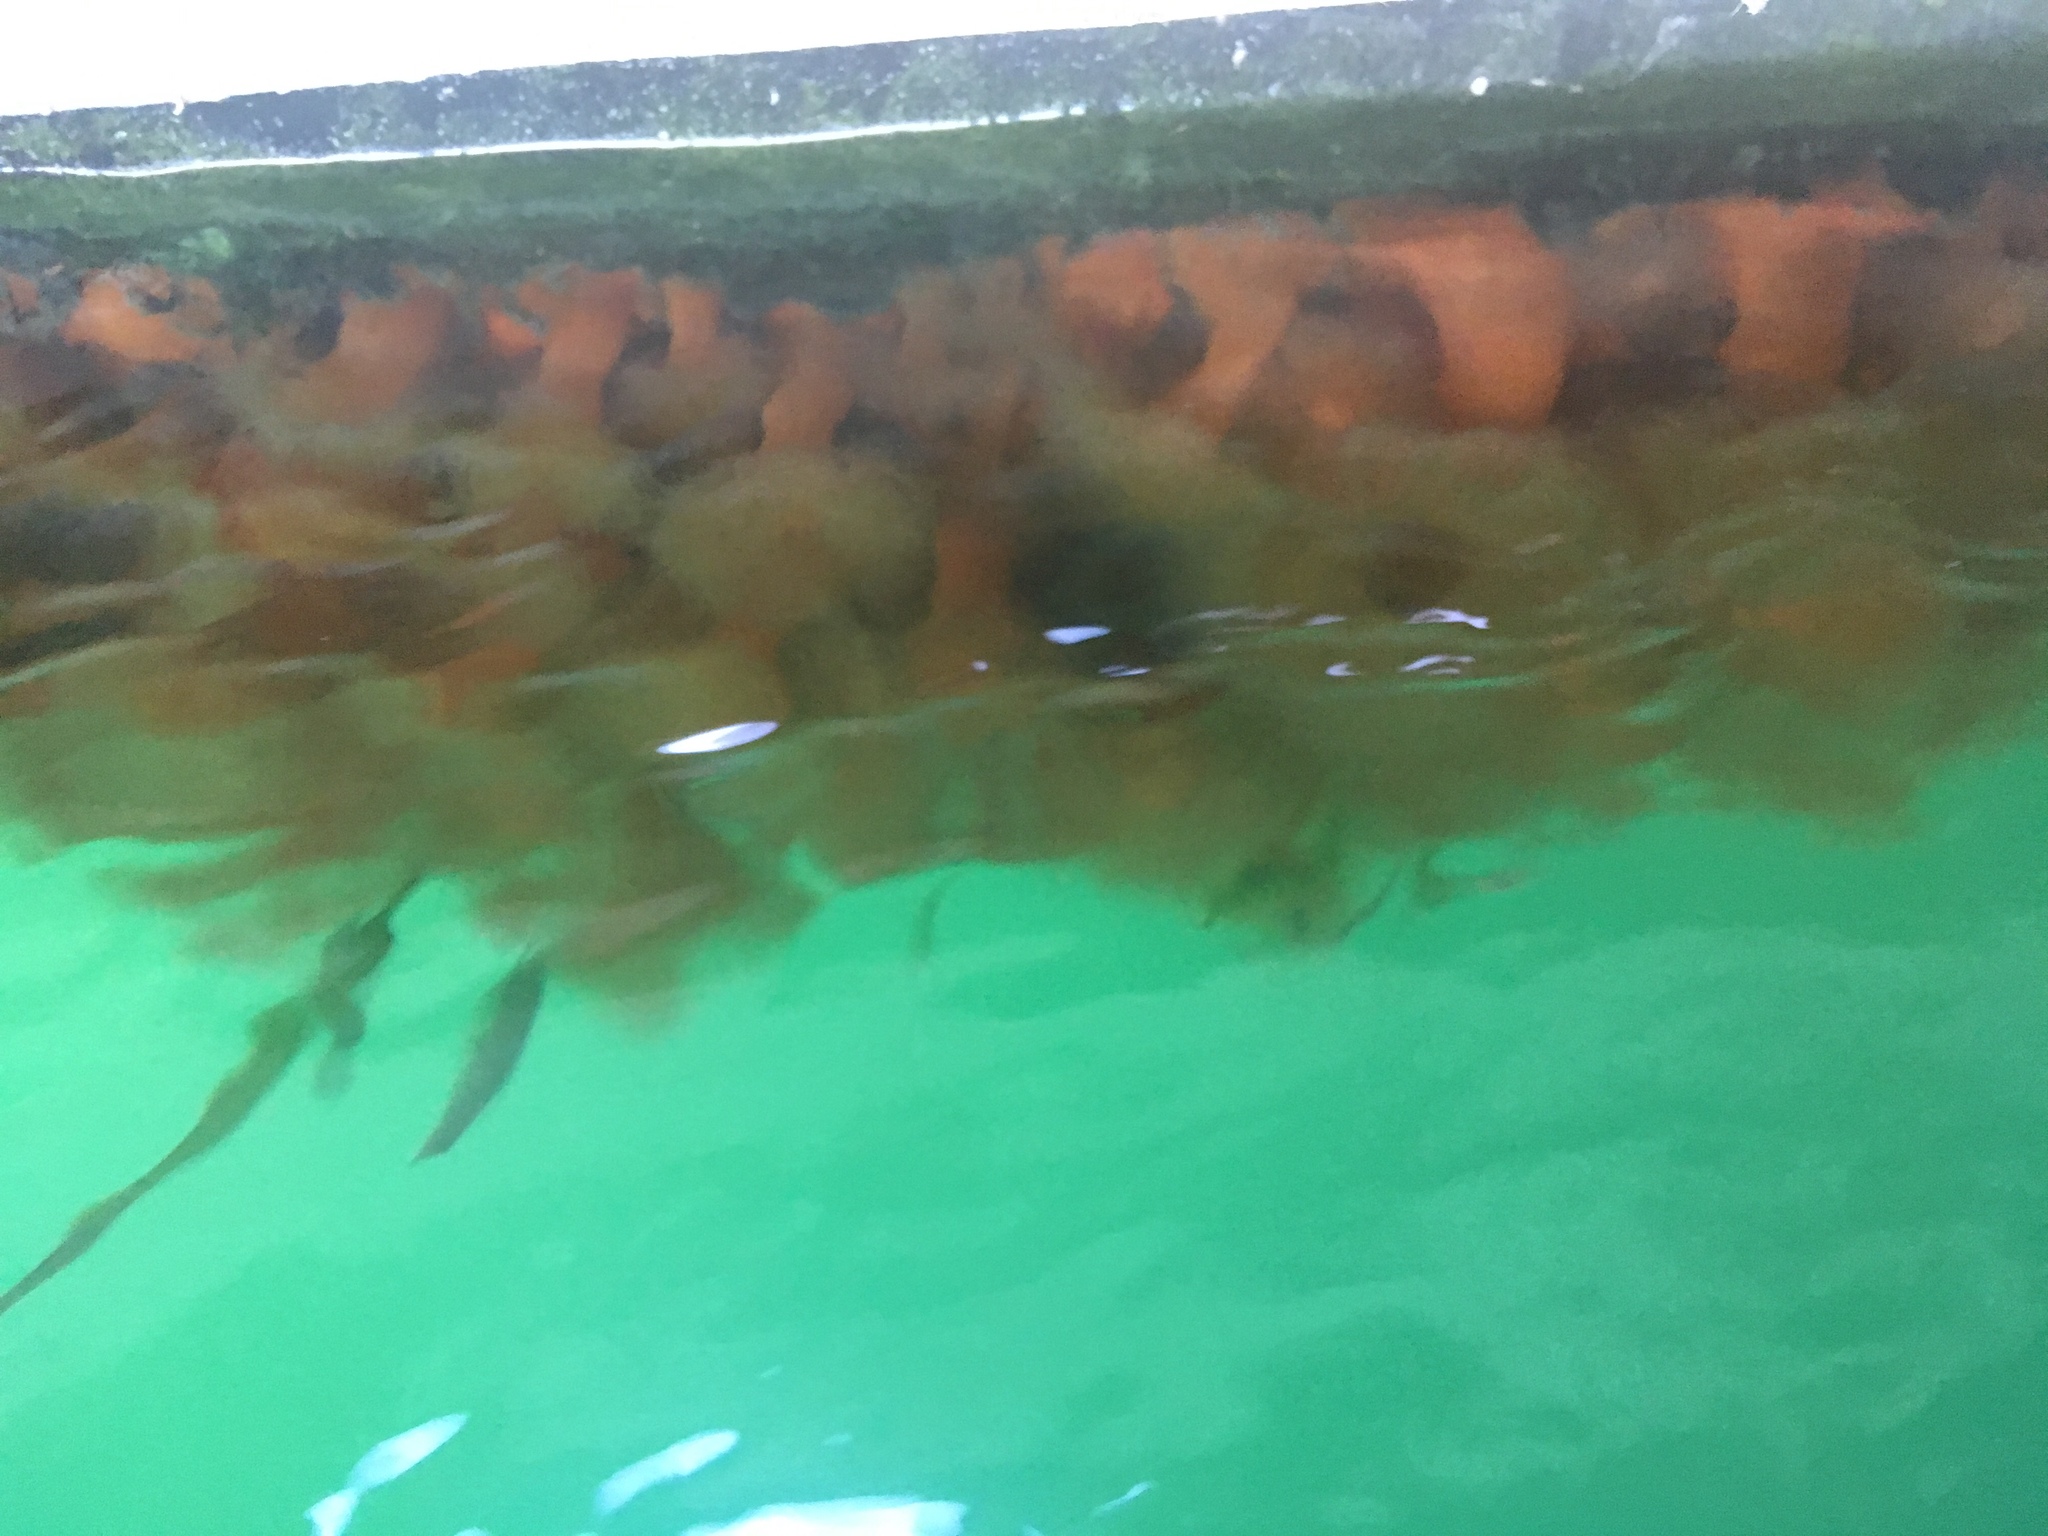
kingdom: Animalia
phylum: Cnidaria
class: Anthozoa
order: Actiniaria
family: Metridiidae
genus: Metridium
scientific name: Metridium senile
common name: Clonal plumose anemone
